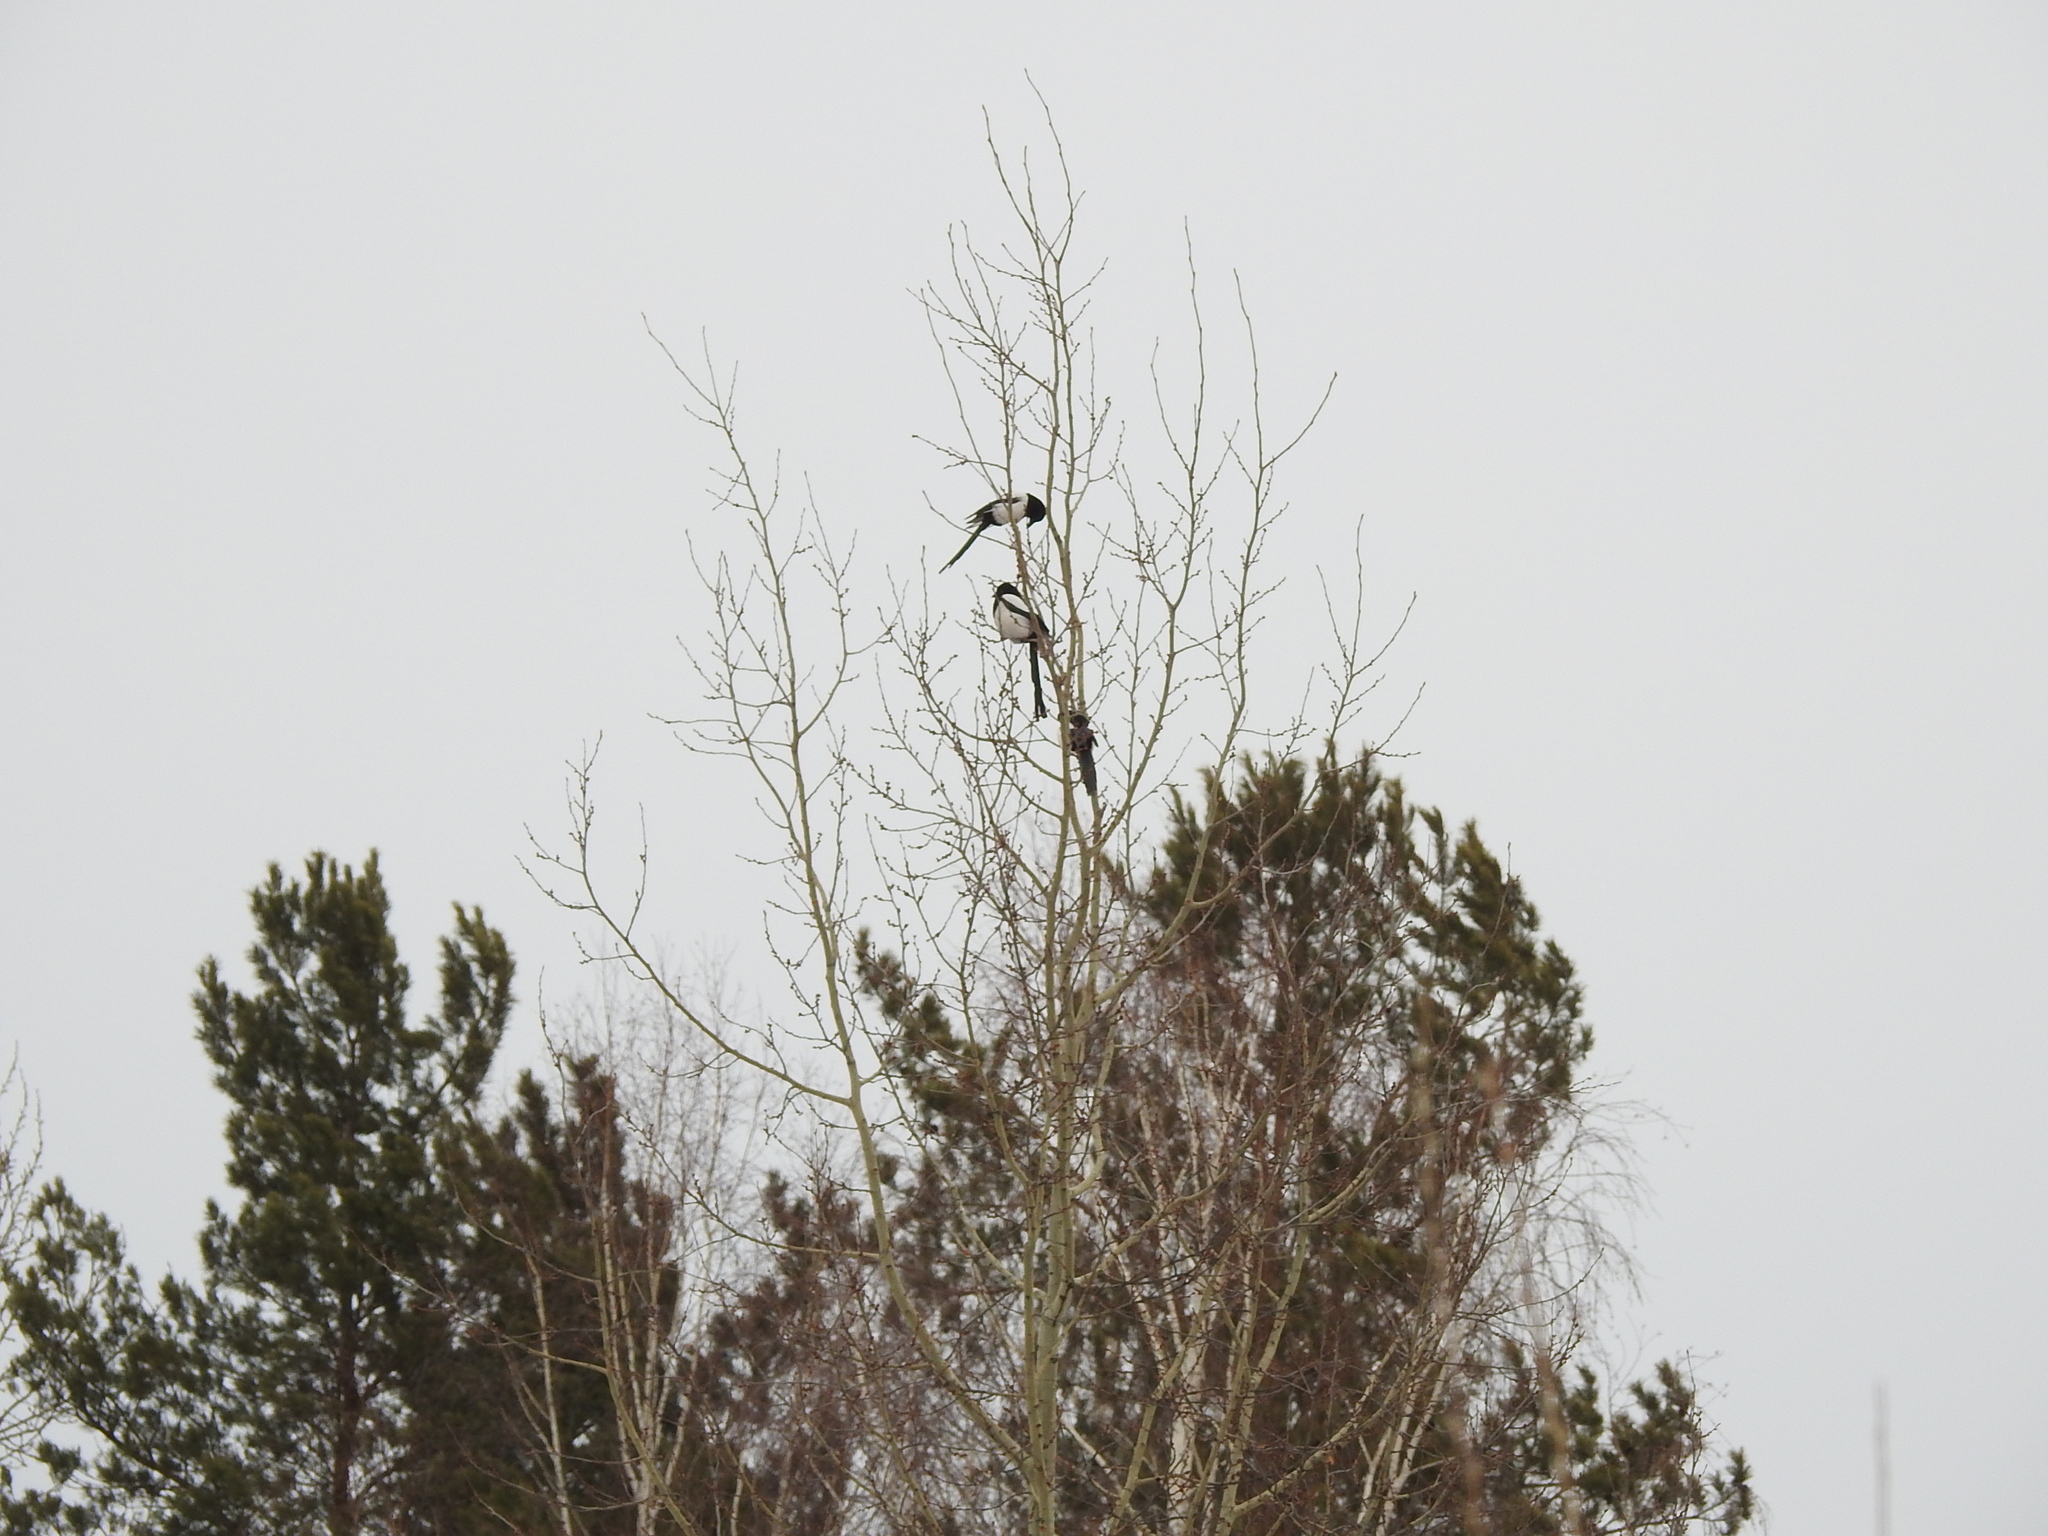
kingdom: Animalia
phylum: Chordata
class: Aves
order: Passeriformes
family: Corvidae
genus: Pica
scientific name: Pica pica
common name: Eurasian magpie
